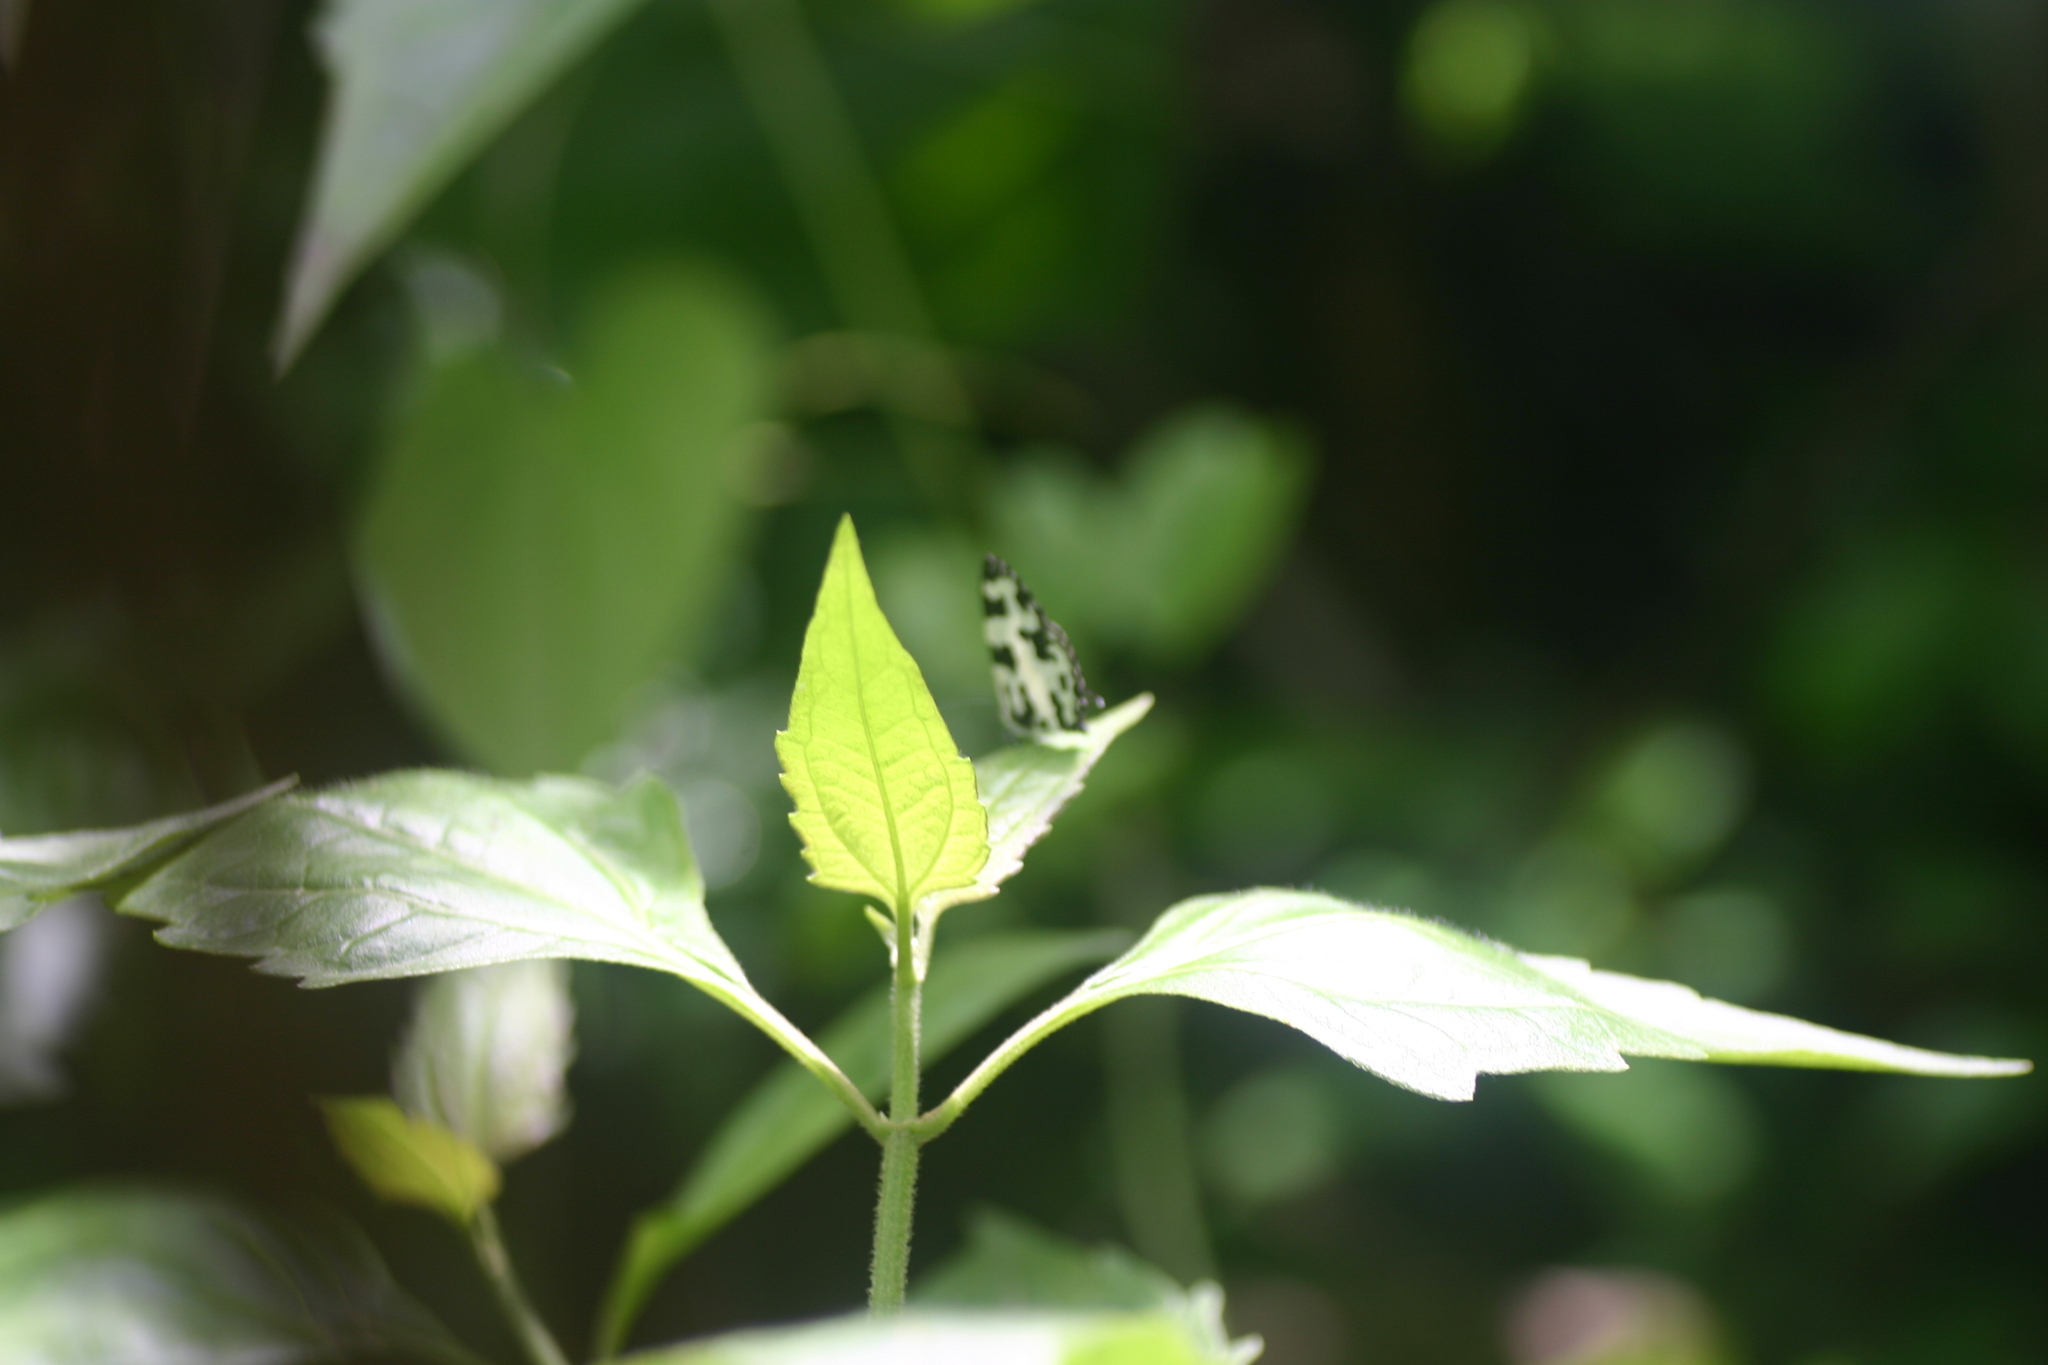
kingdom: Animalia
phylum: Arthropoda
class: Insecta
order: Lepidoptera
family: Lycaenidae
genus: Caleta
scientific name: Caleta decidia
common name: Angled pierrot
